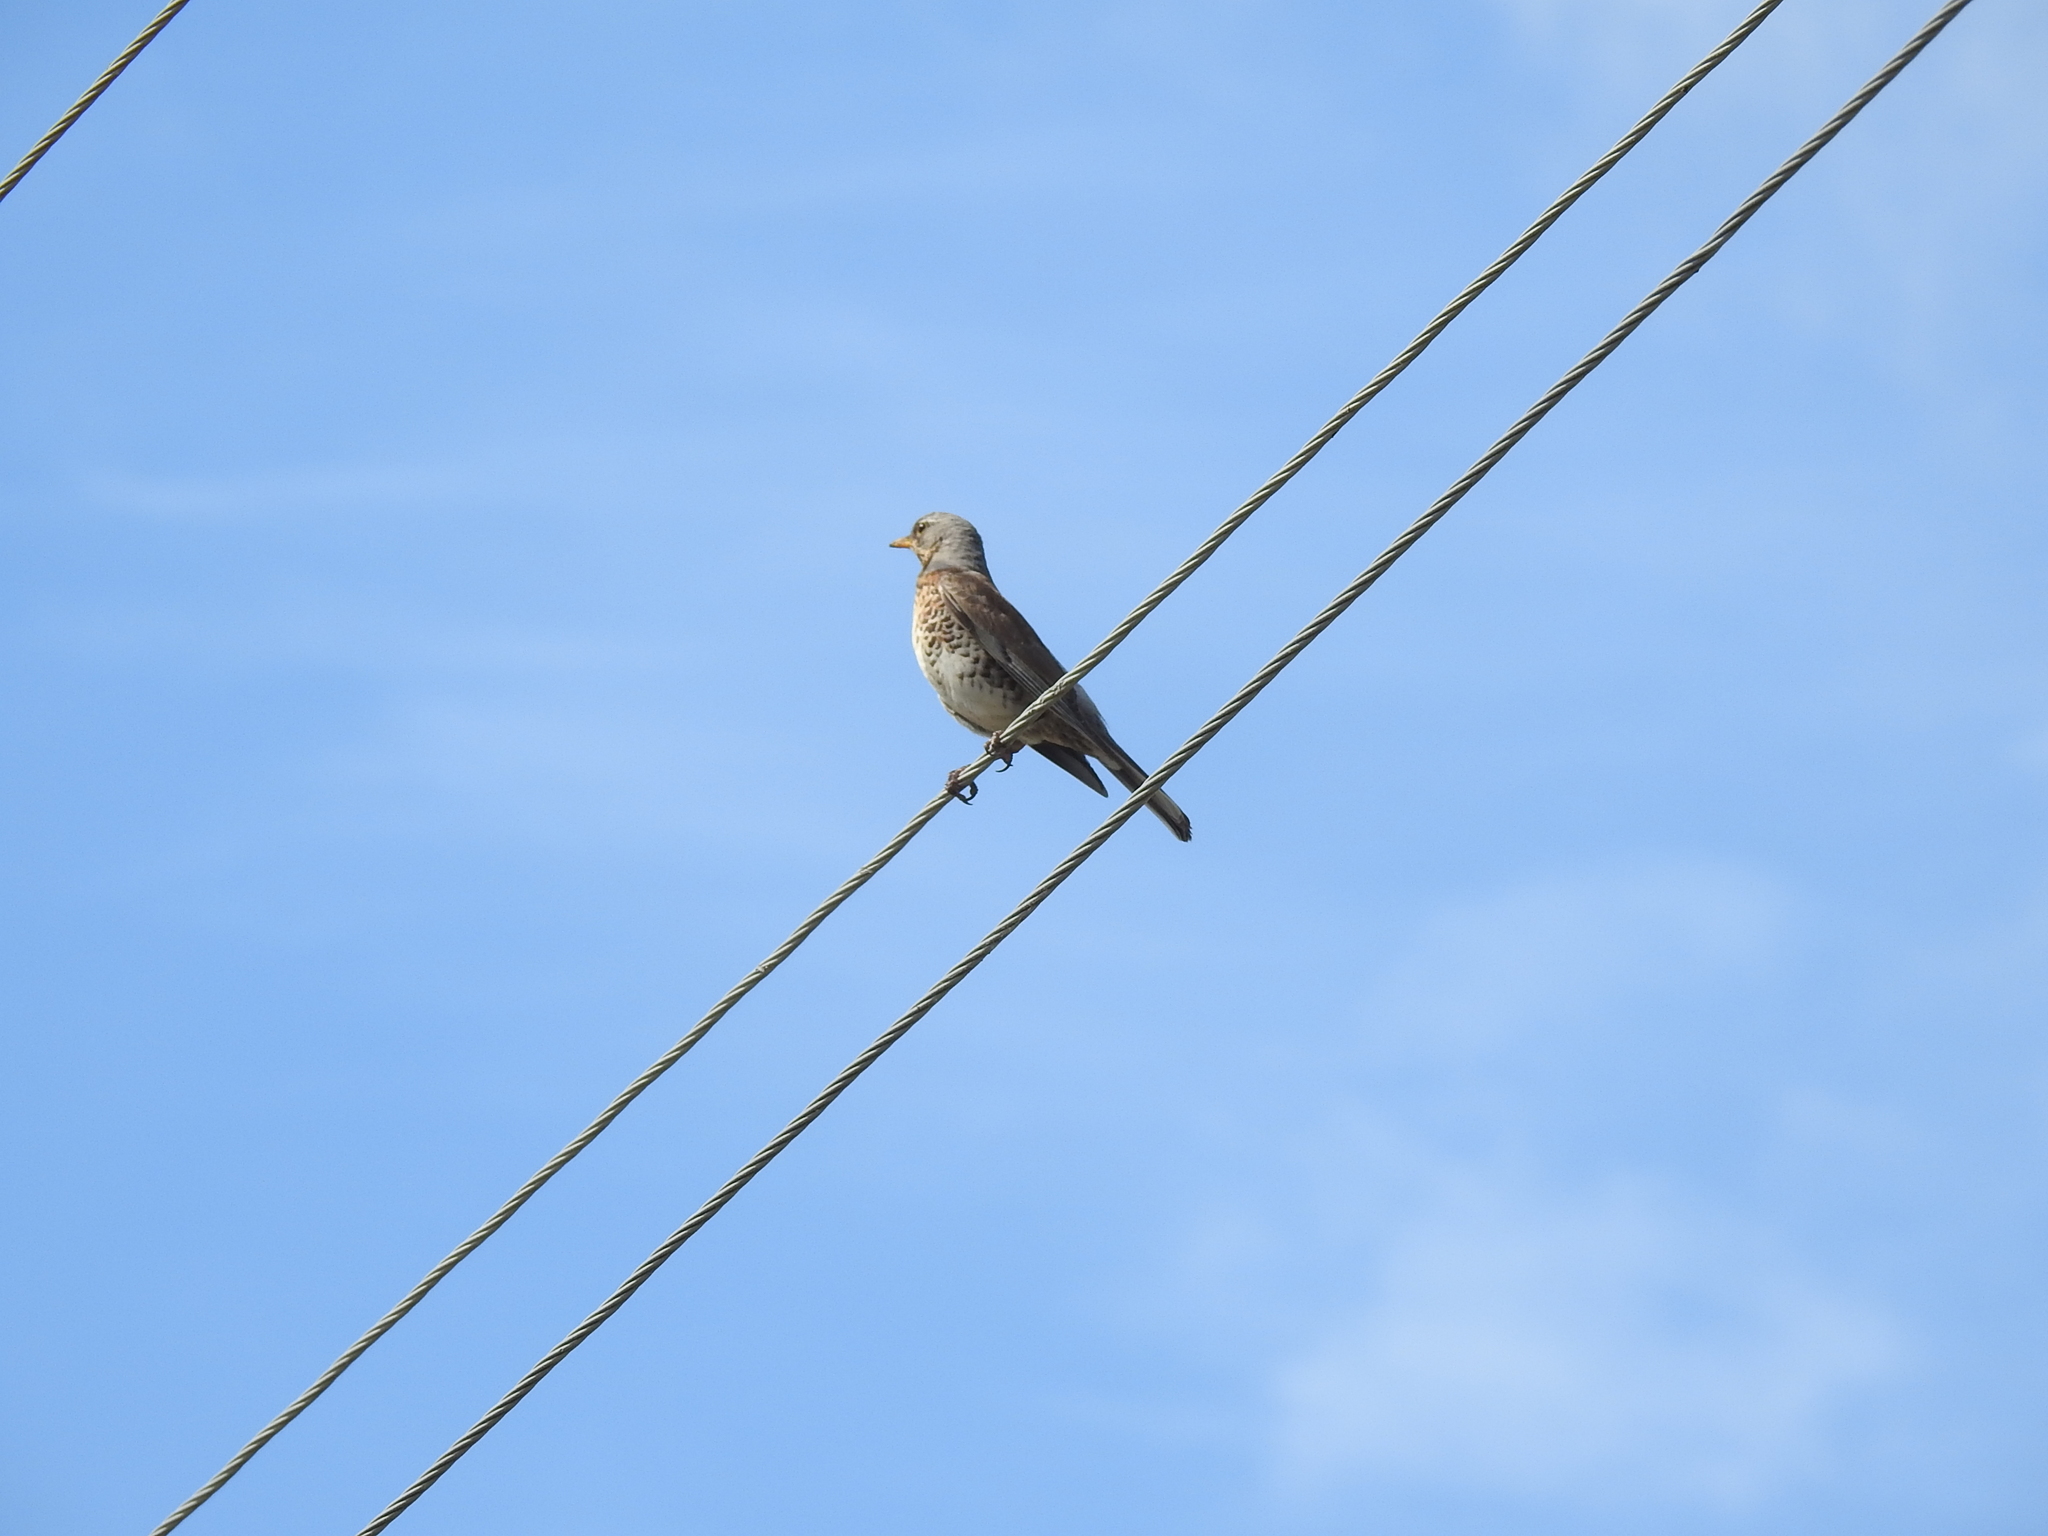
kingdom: Animalia
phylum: Chordata
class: Aves
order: Passeriformes
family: Turdidae
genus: Turdus
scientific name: Turdus pilaris
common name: Fieldfare
